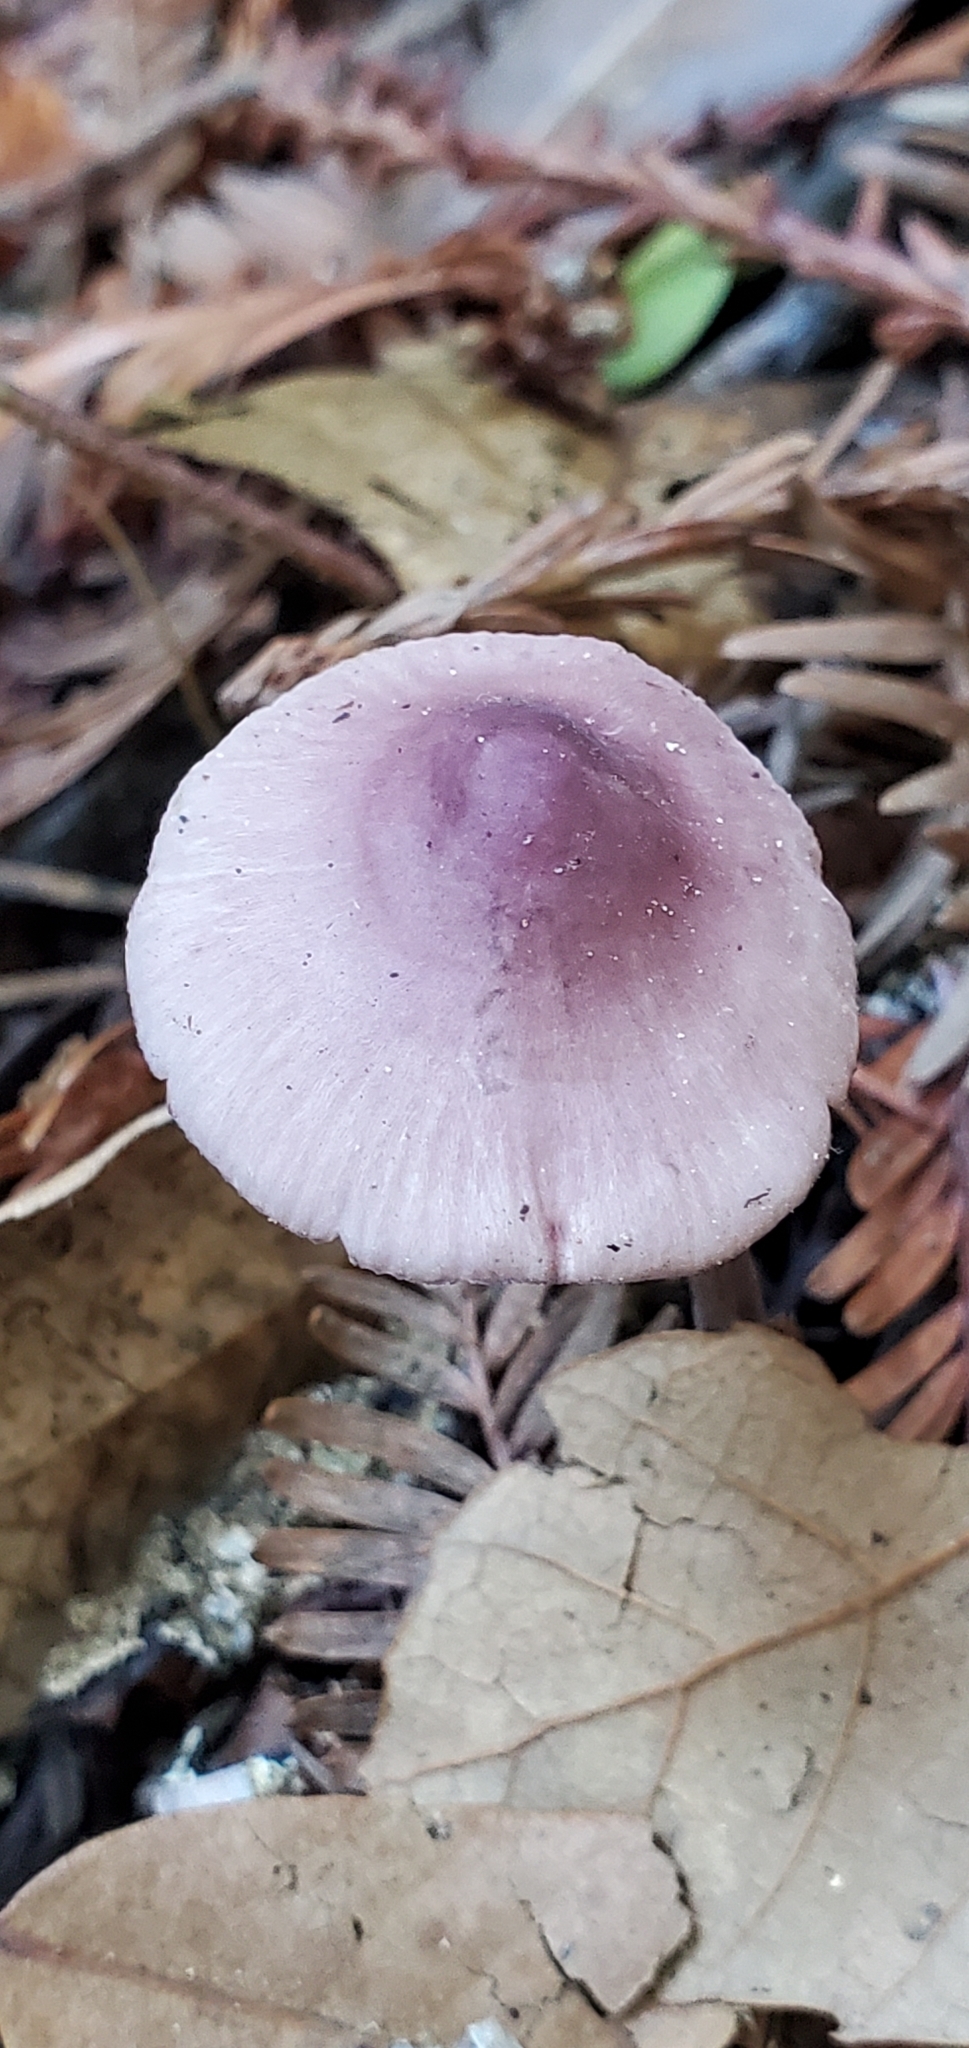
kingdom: Fungi
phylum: Basidiomycota
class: Agaricomycetes
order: Agaricales
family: Mycenaceae
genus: Mycena
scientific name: Mycena pura
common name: Lilac bonnet
